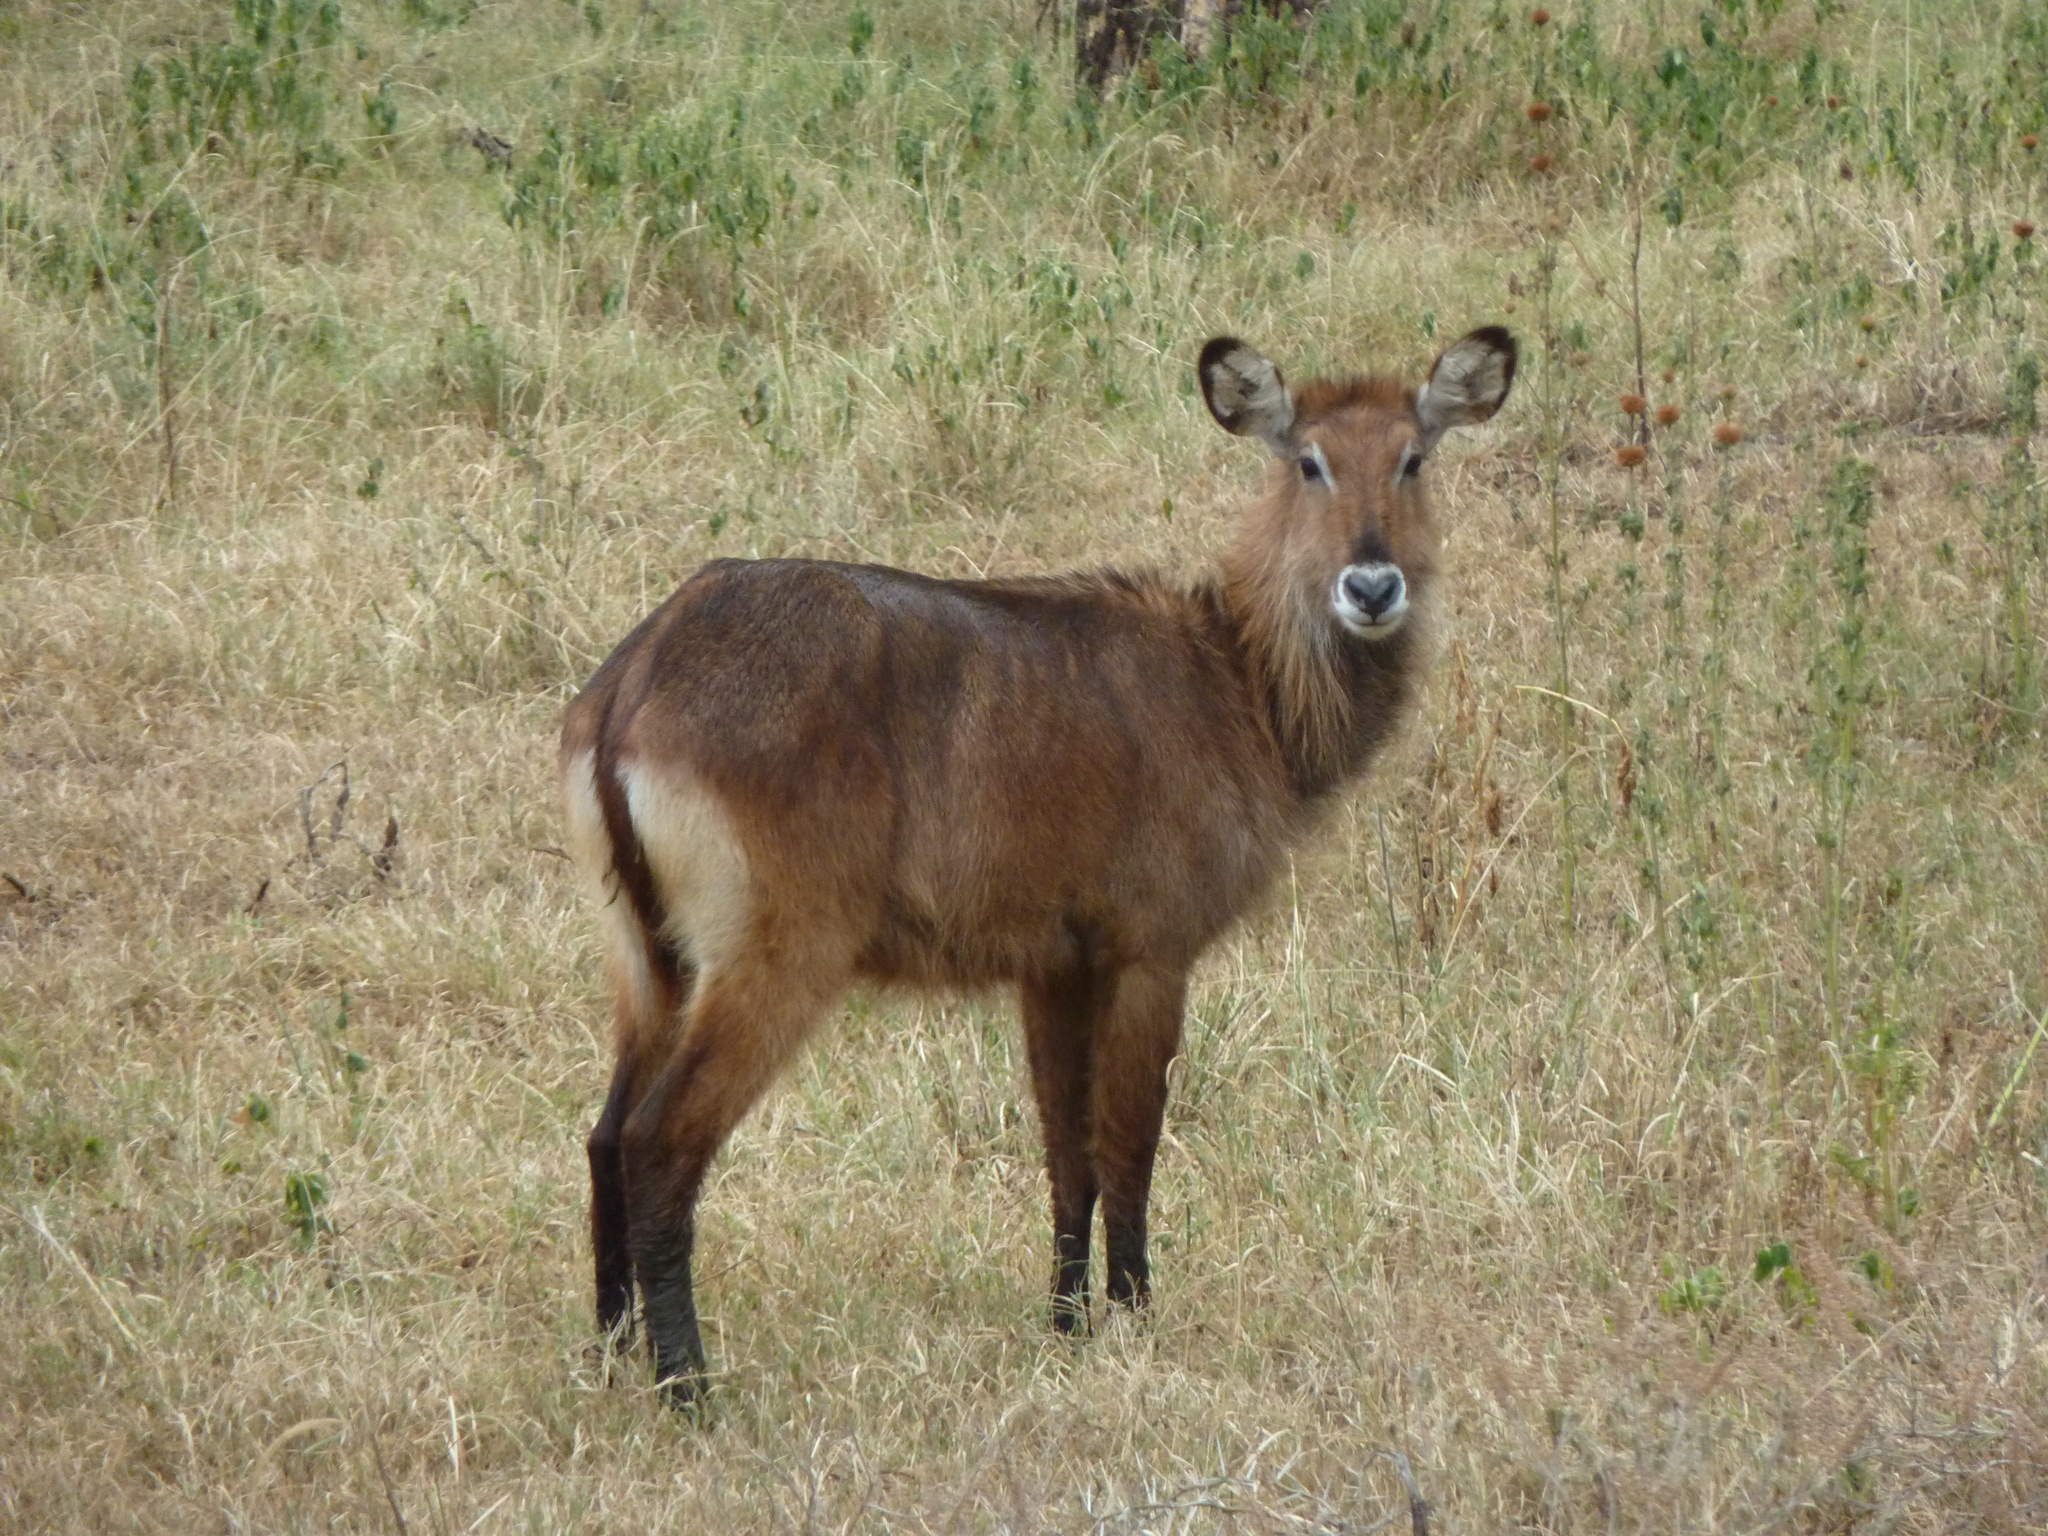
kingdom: Animalia
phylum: Chordata
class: Mammalia
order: Artiodactyla
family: Bovidae
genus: Kobus
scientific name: Kobus ellipsiprymnus
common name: Waterbuck
